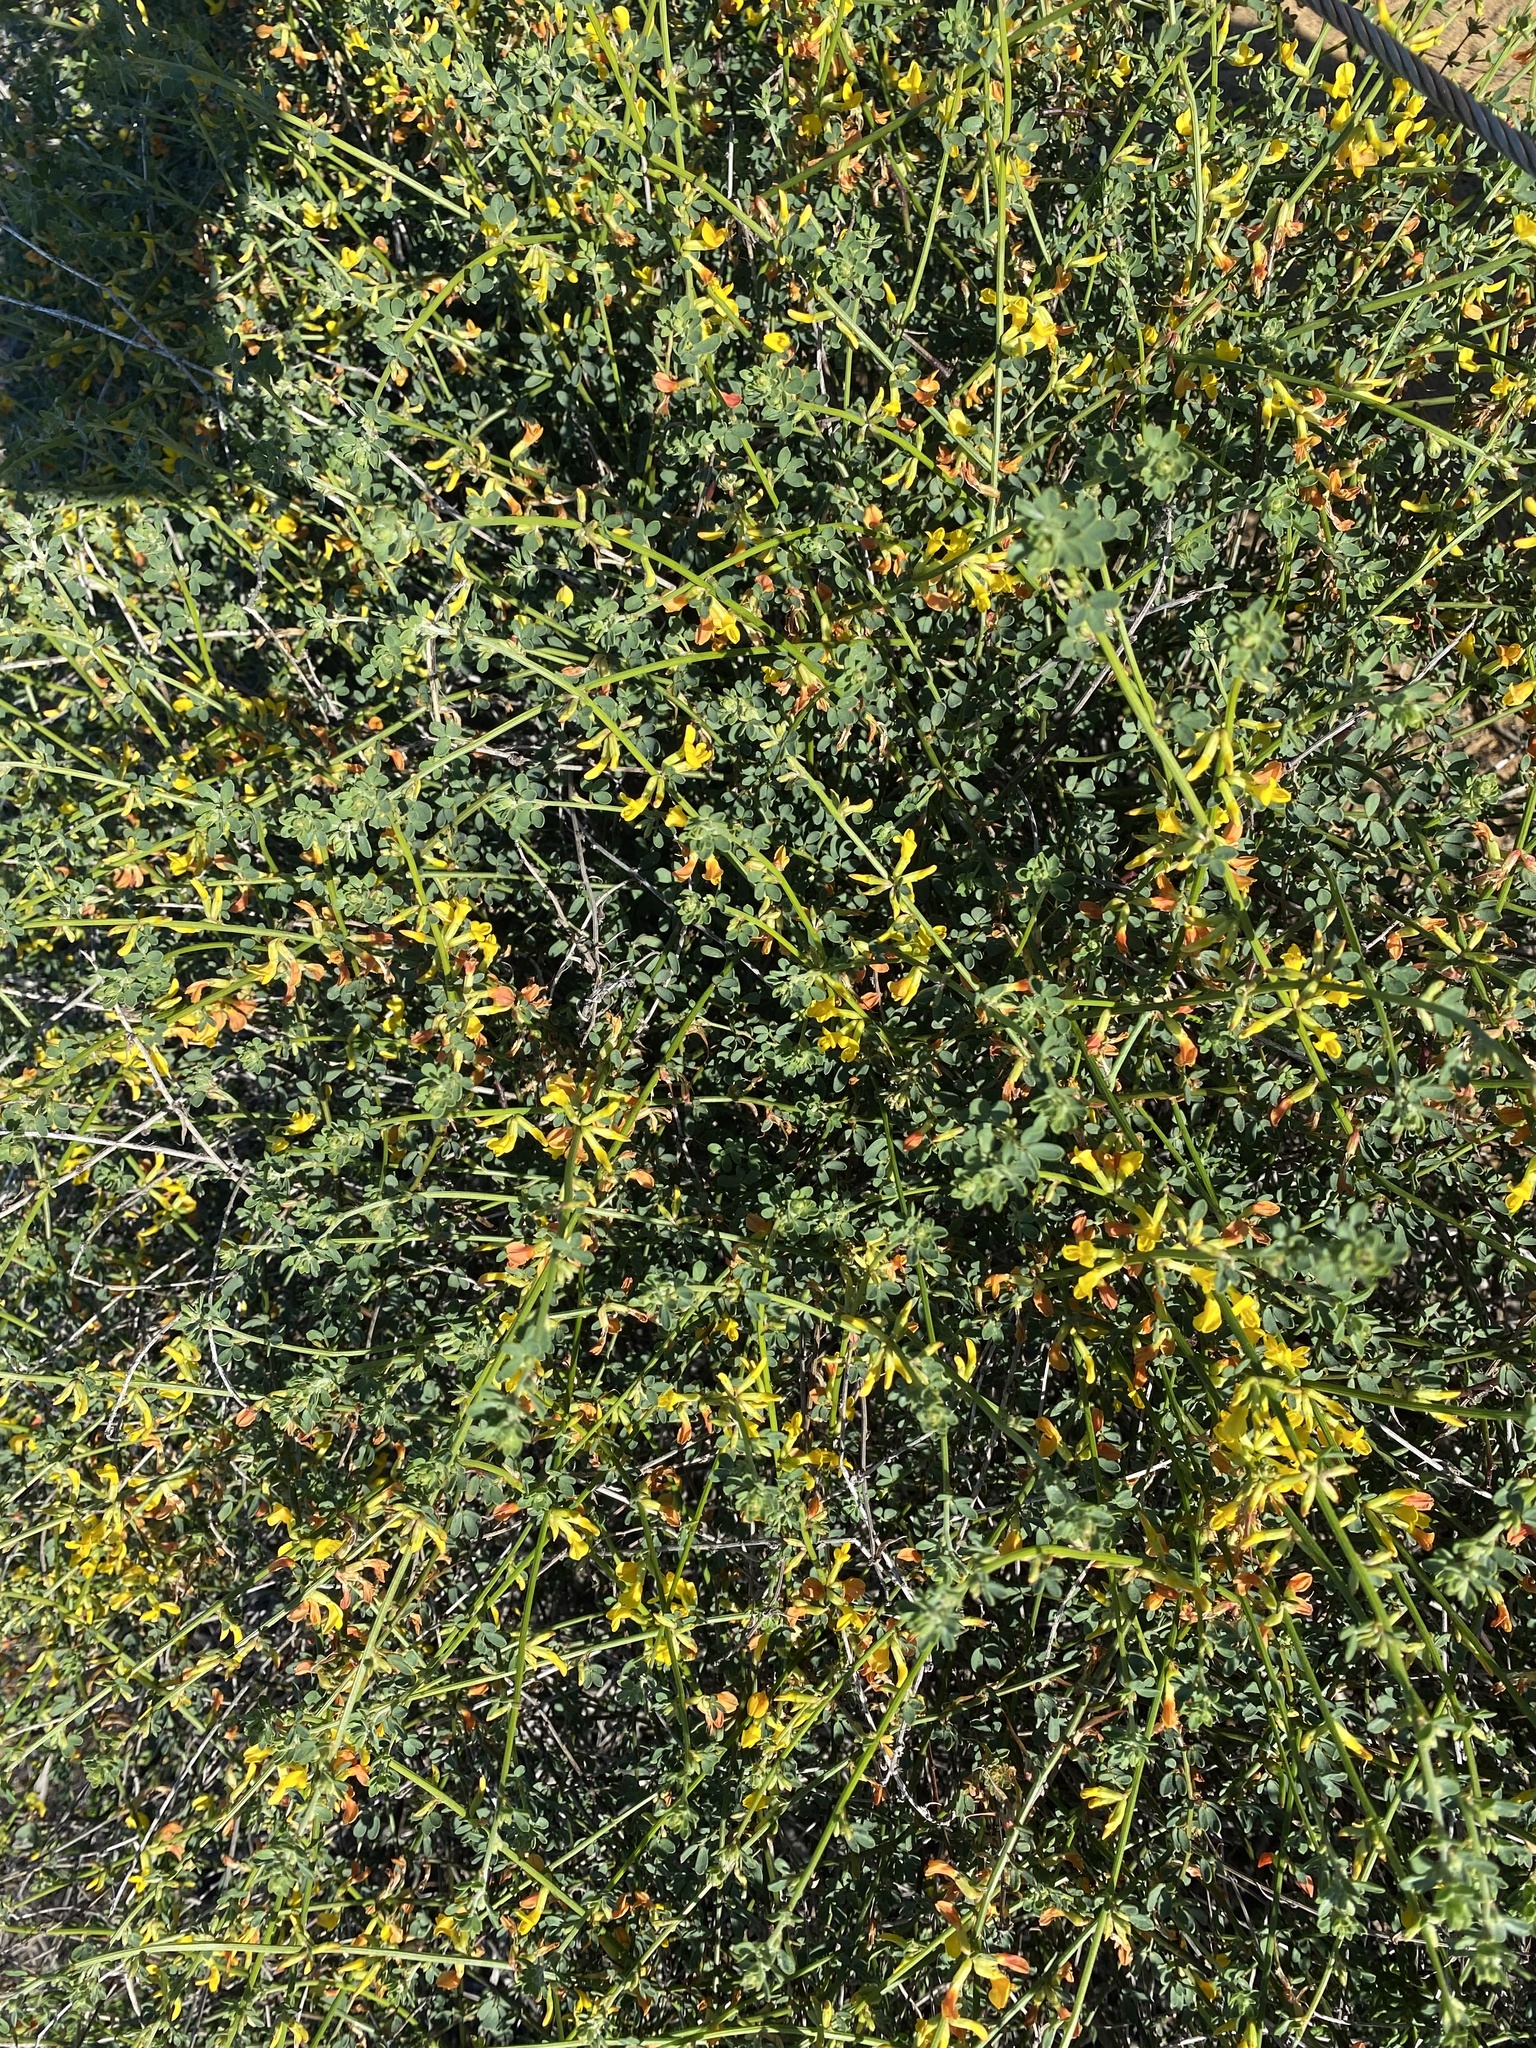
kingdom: Plantae
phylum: Tracheophyta
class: Magnoliopsida
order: Fabales
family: Fabaceae
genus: Acmispon
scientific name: Acmispon glaber
